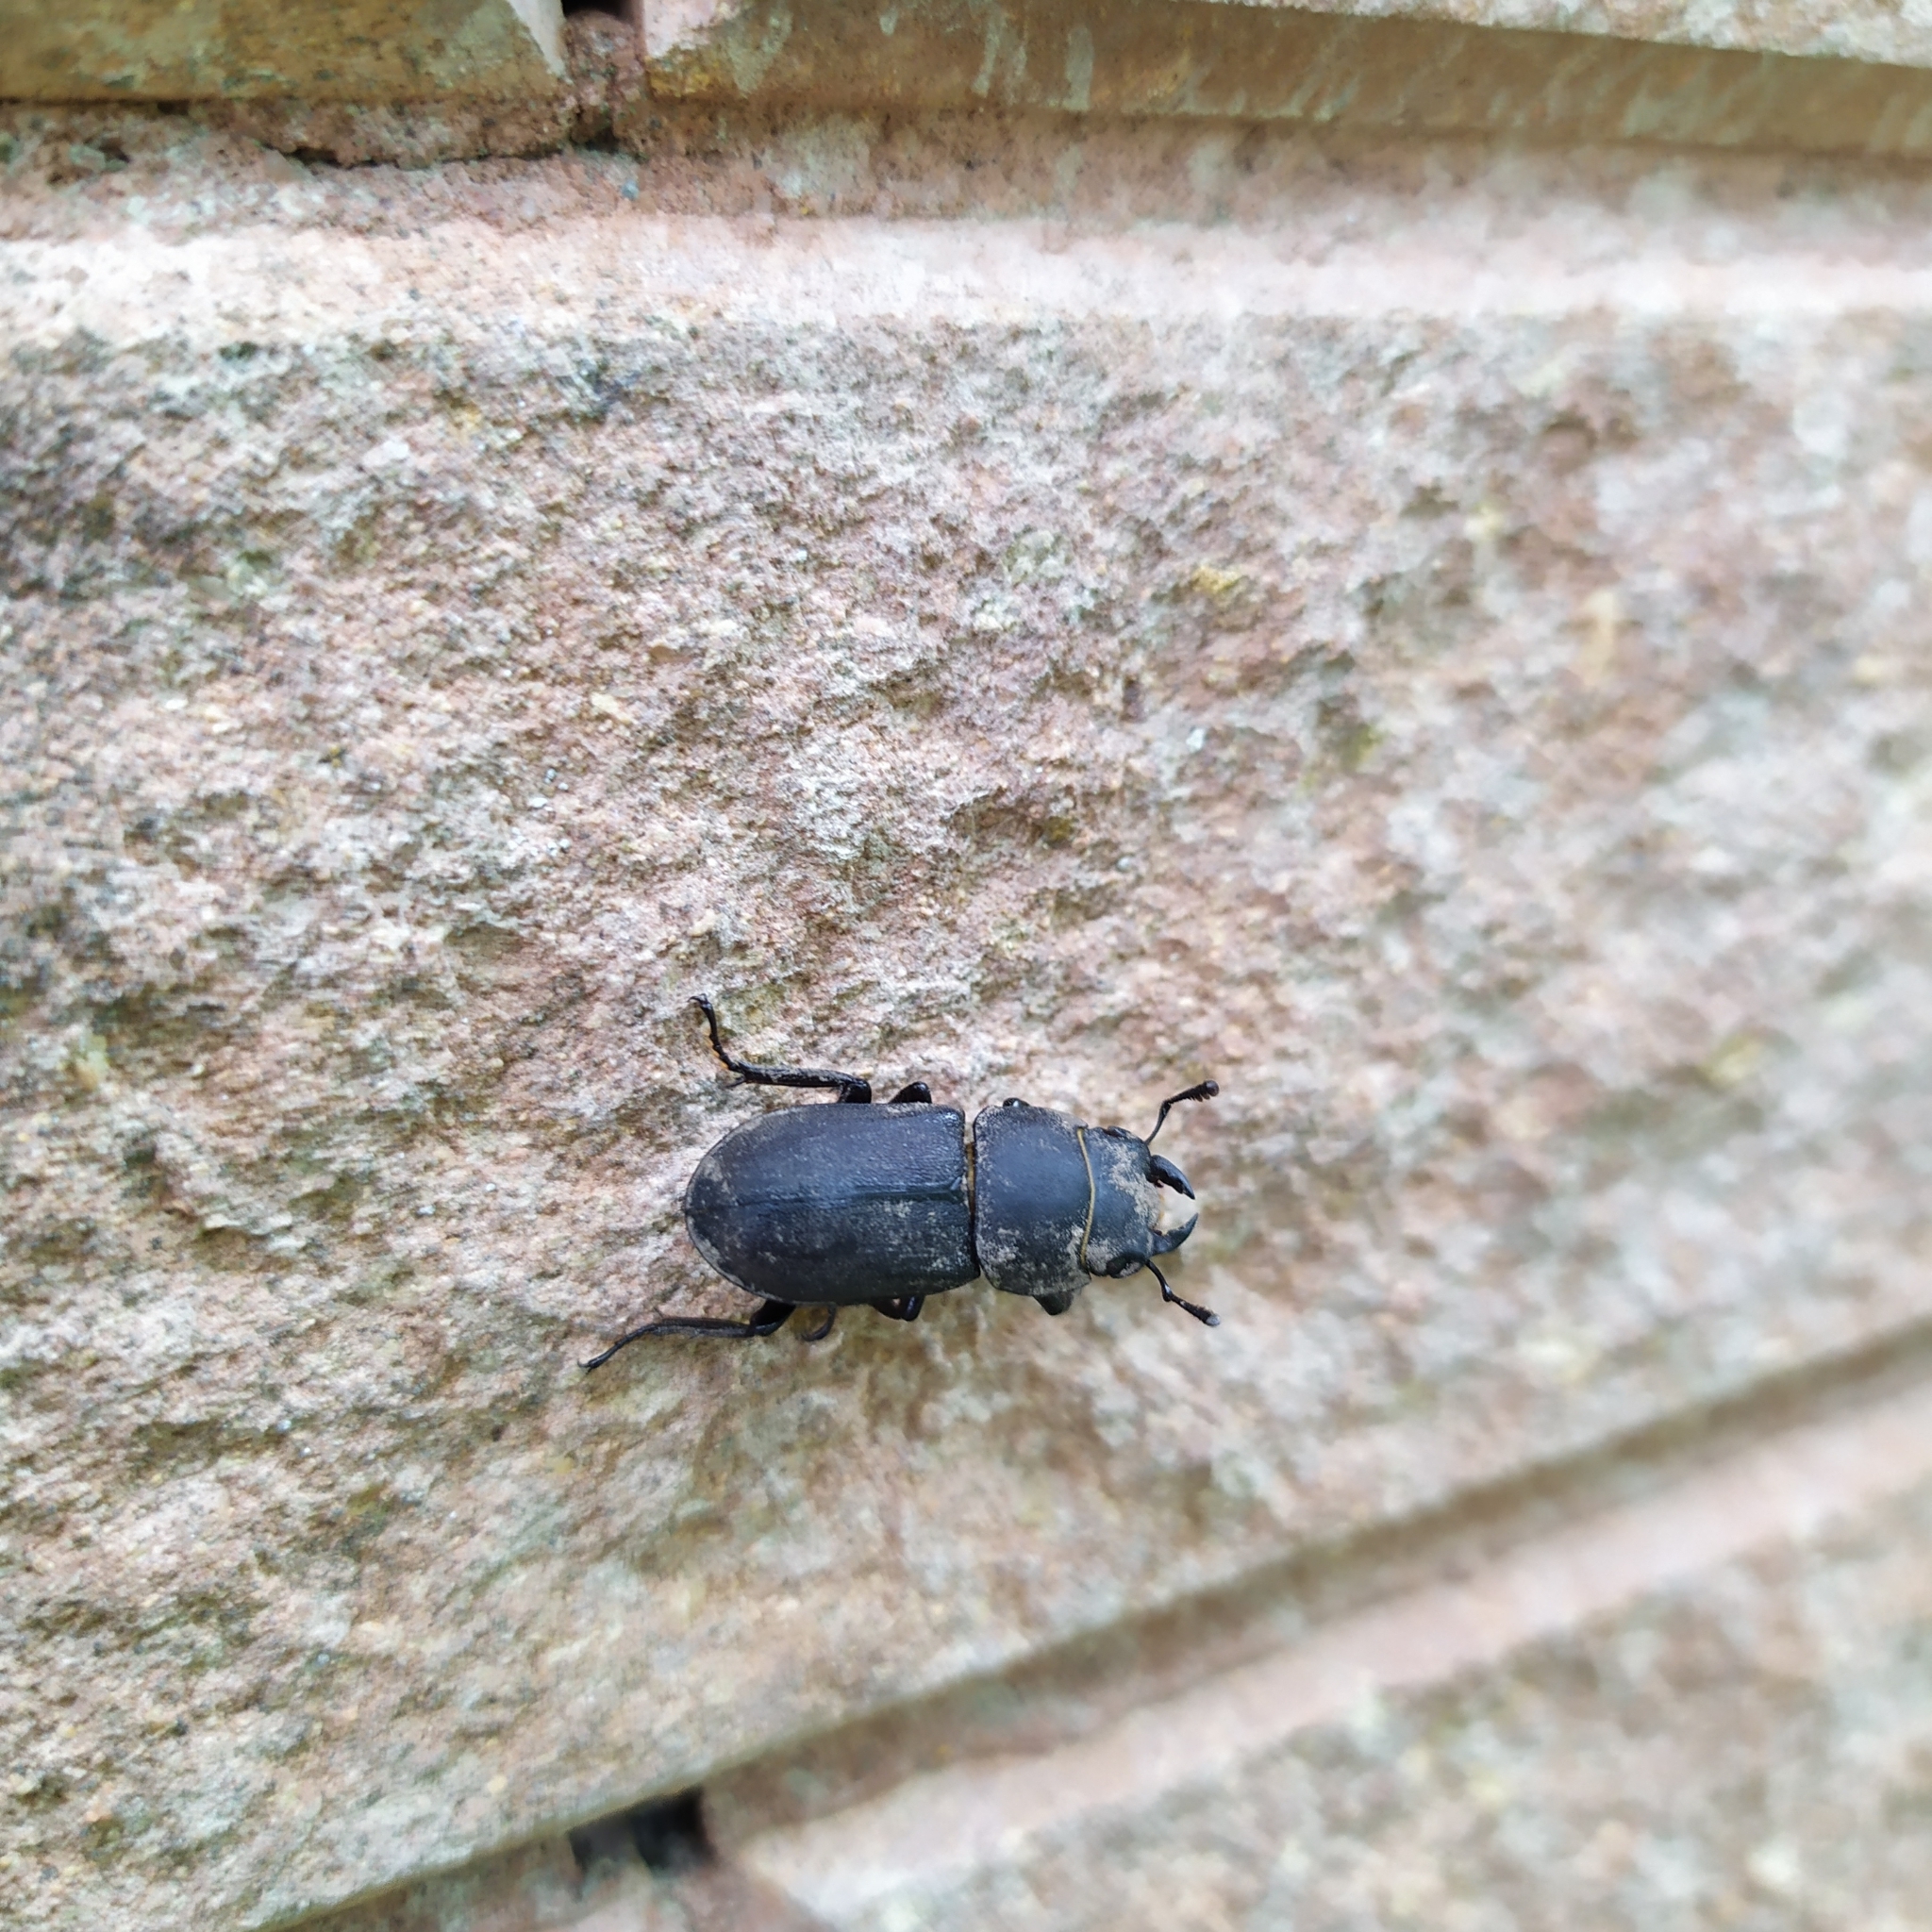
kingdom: Animalia
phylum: Arthropoda
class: Insecta
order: Coleoptera
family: Lucanidae
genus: Dorcus
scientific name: Dorcus parallelipipedus
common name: Lesser stag beetle
